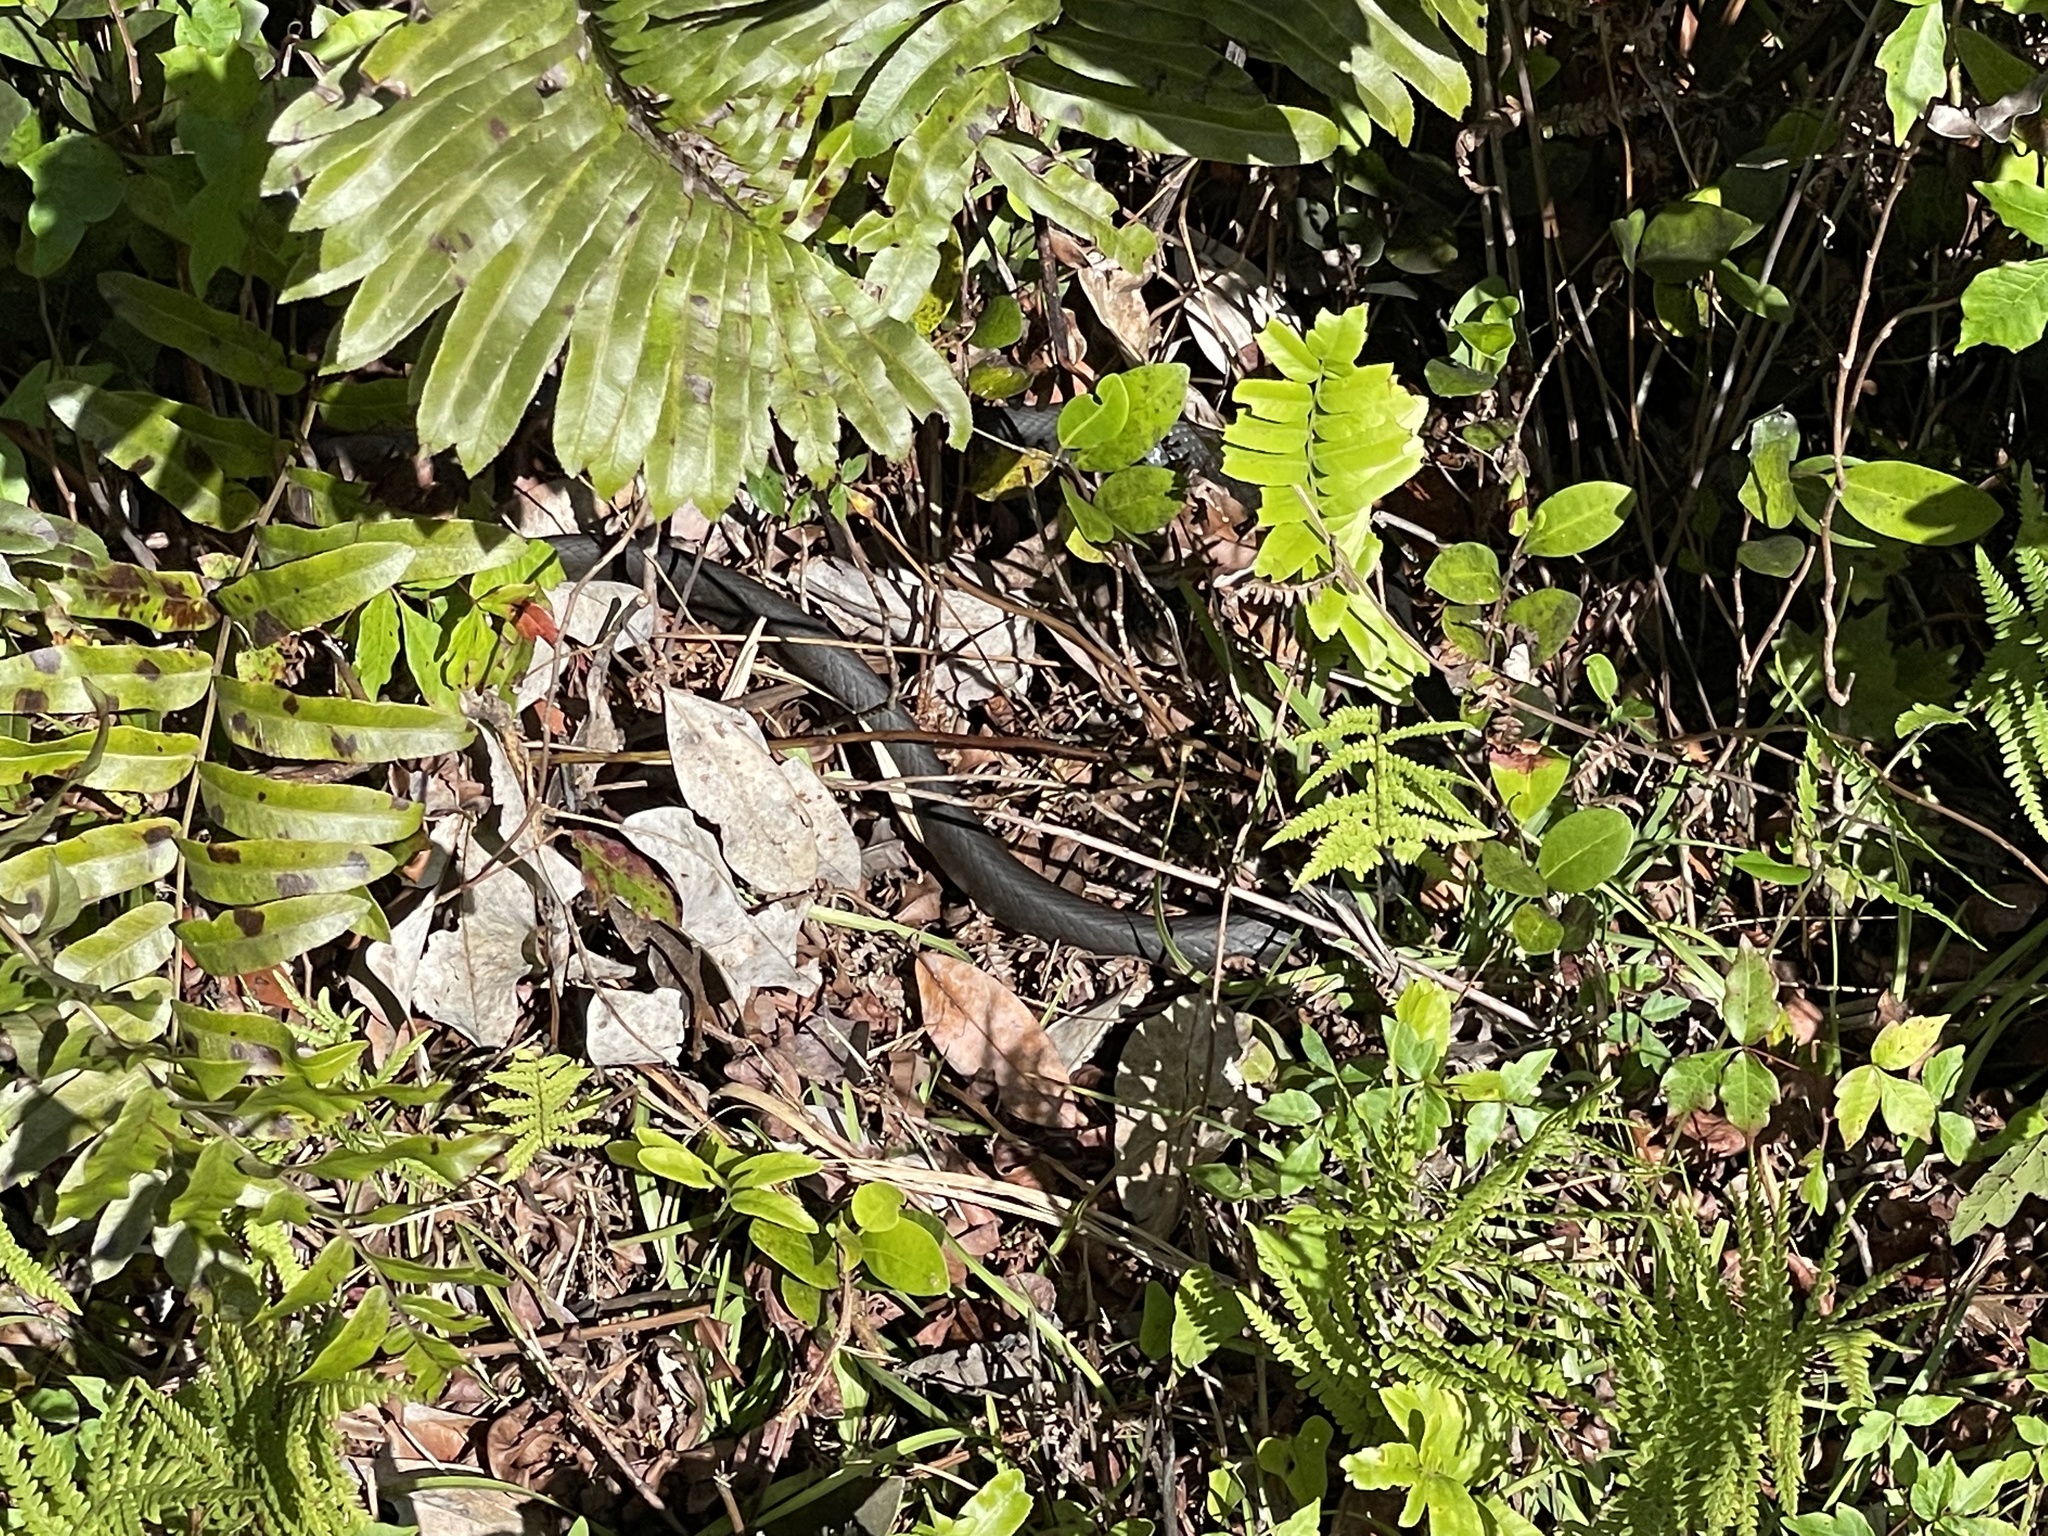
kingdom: Animalia
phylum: Chordata
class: Squamata
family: Colubridae
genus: Coluber
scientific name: Coluber constrictor
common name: Eastern racer
